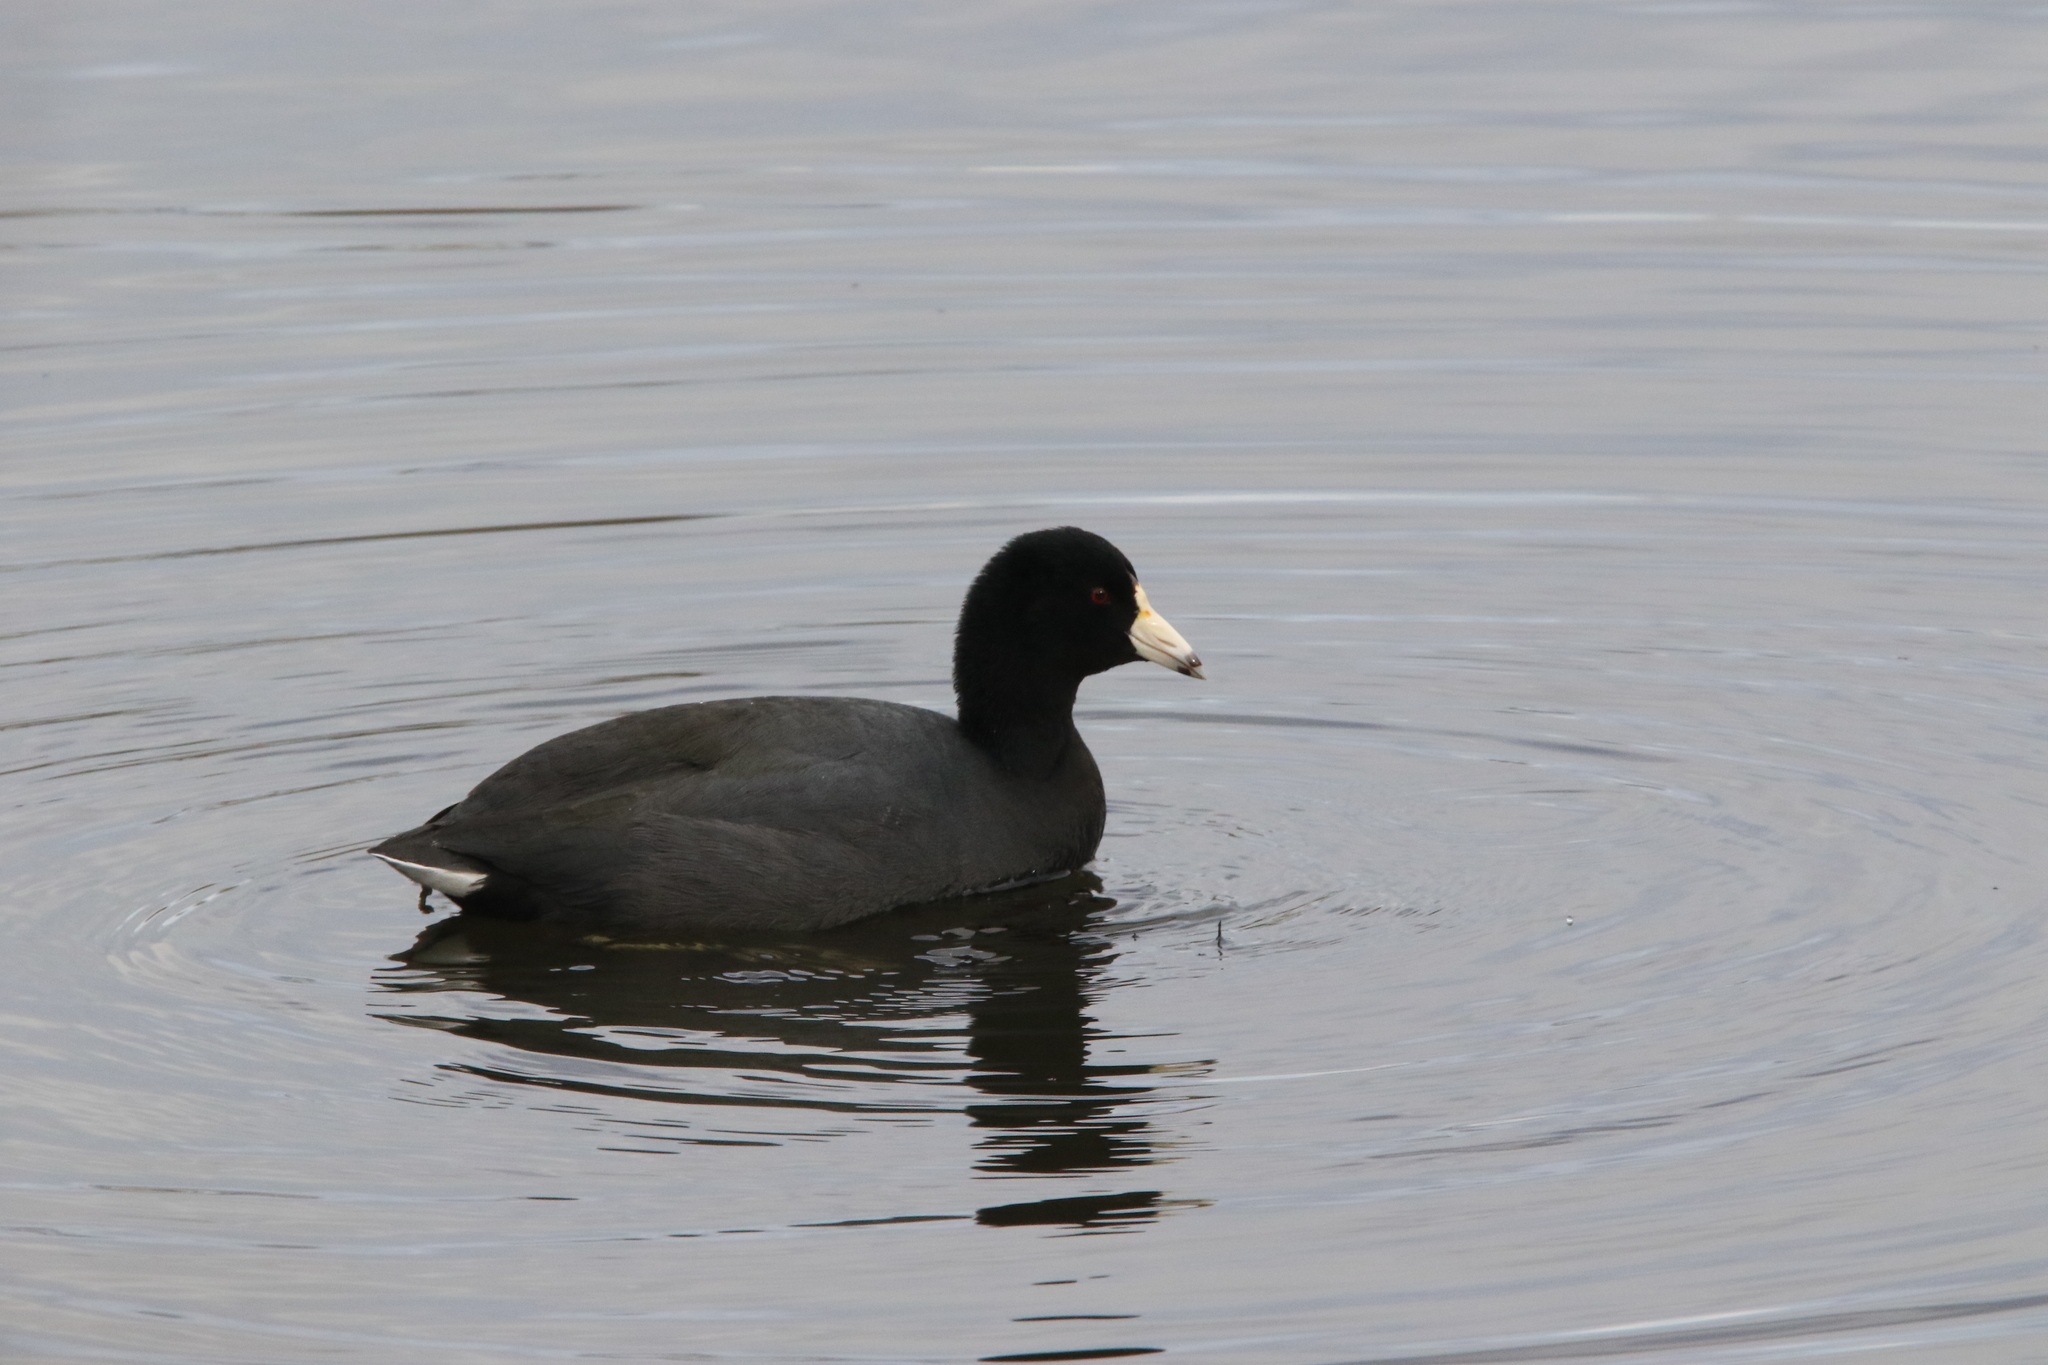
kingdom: Animalia
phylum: Chordata
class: Aves
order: Gruiformes
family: Rallidae
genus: Fulica
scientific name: Fulica americana
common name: American coot
